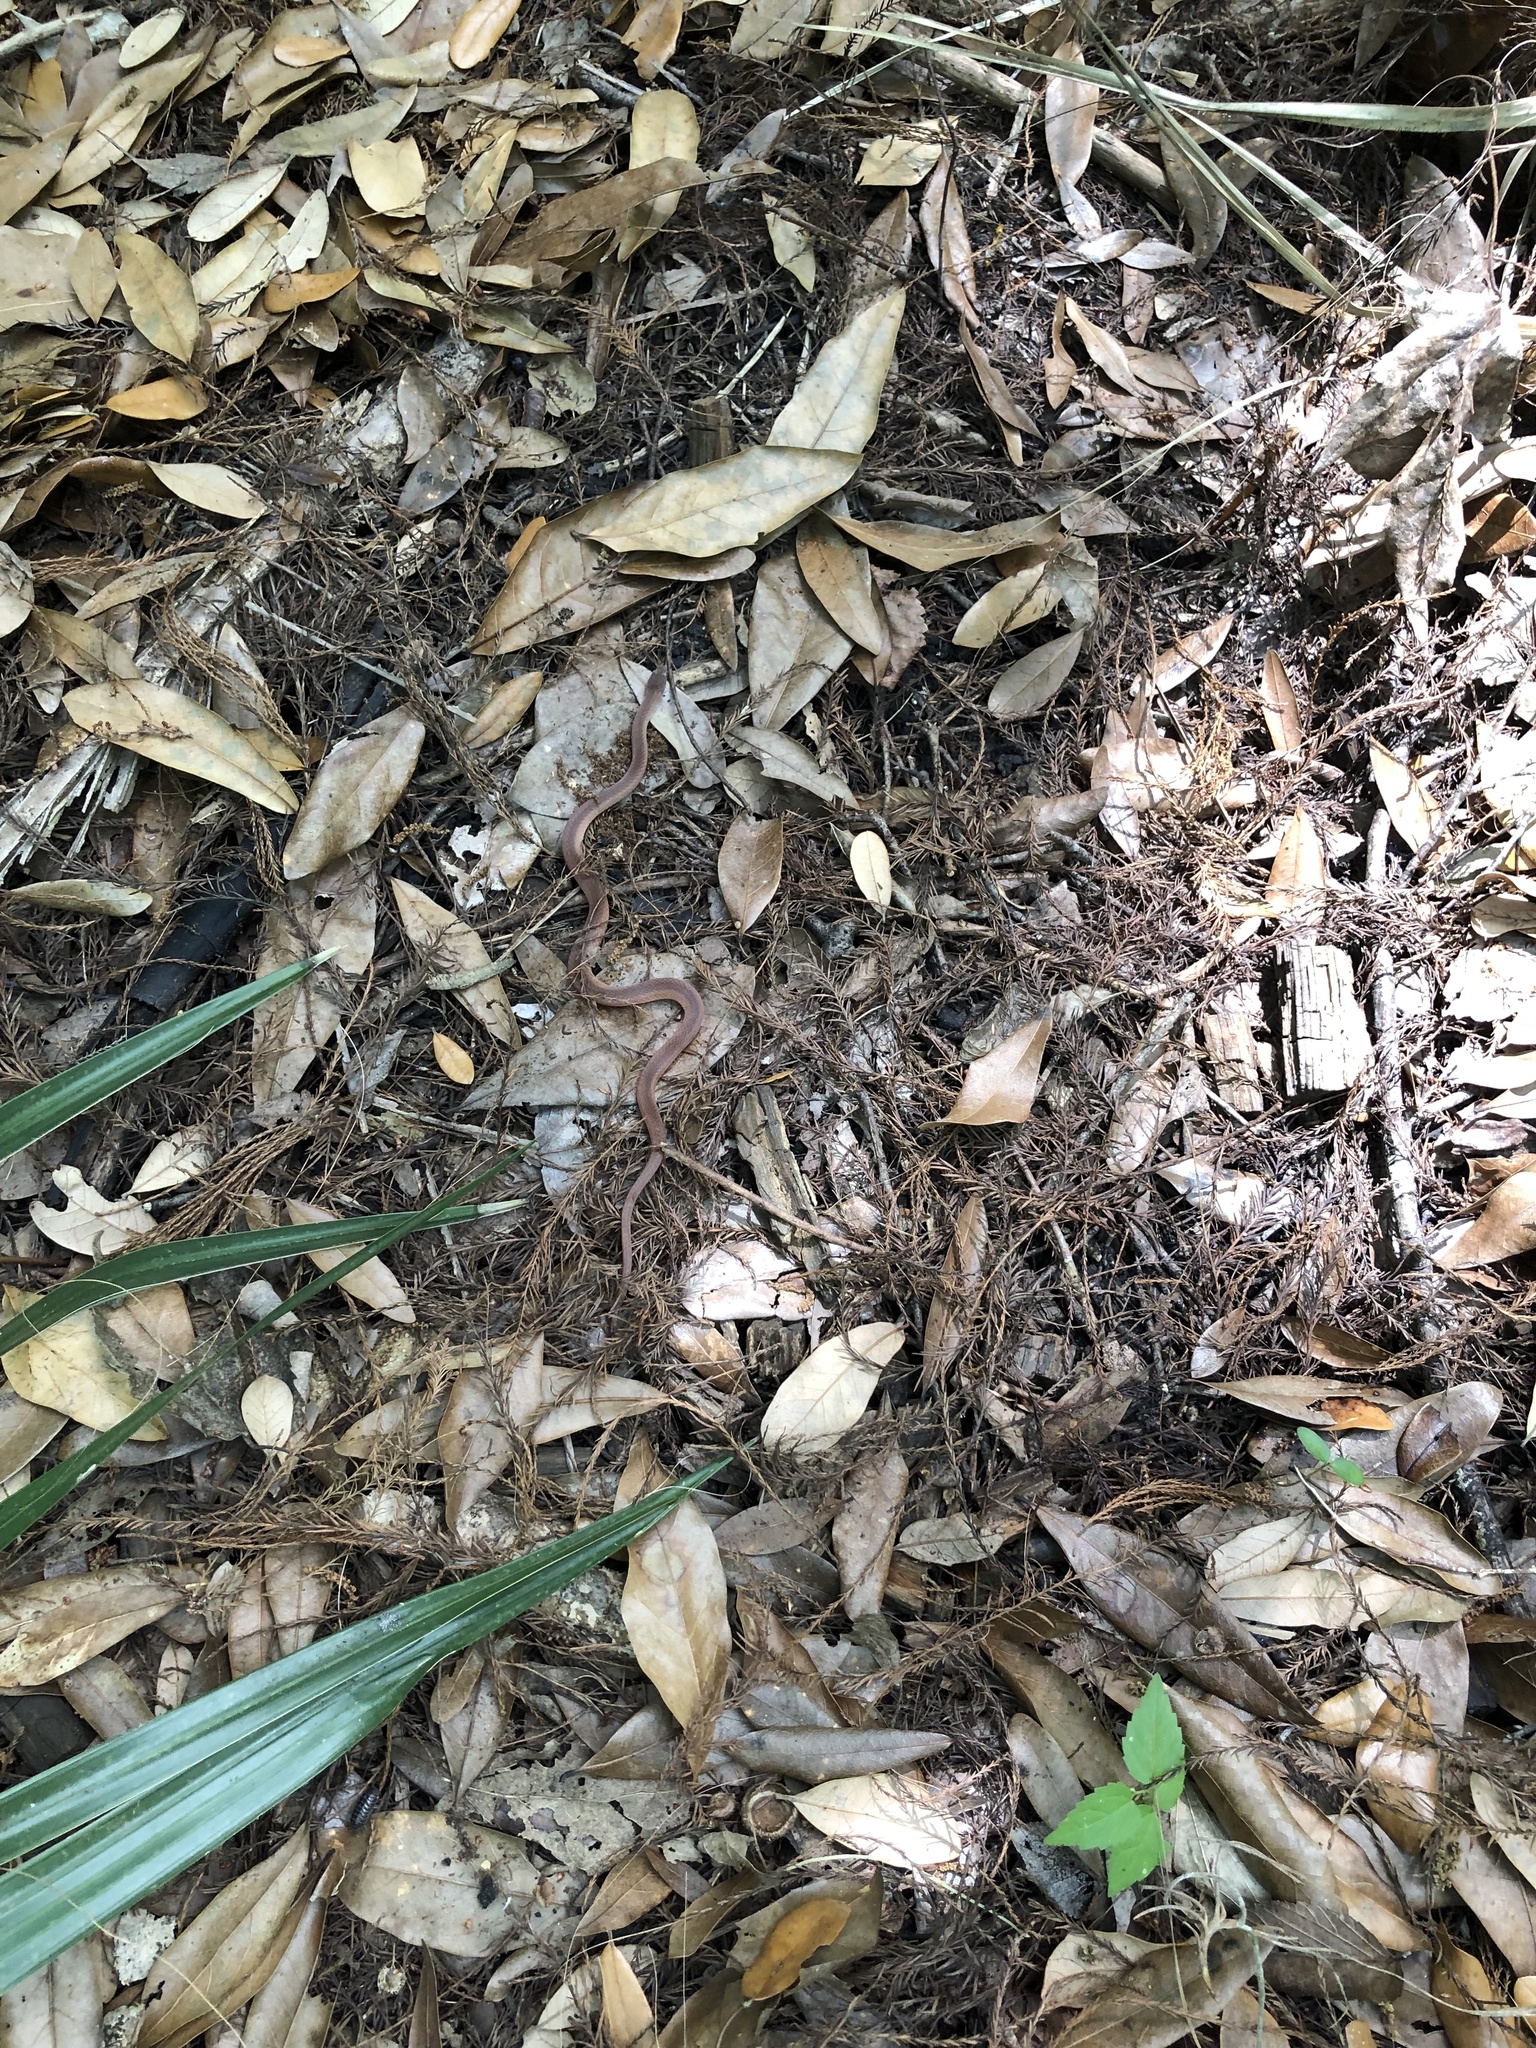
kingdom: Animalia
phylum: Chordata
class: Squamata
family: Colubridae
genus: Rhadinaea
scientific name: Rhadinaea flavilata
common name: Pine woods littersnake
